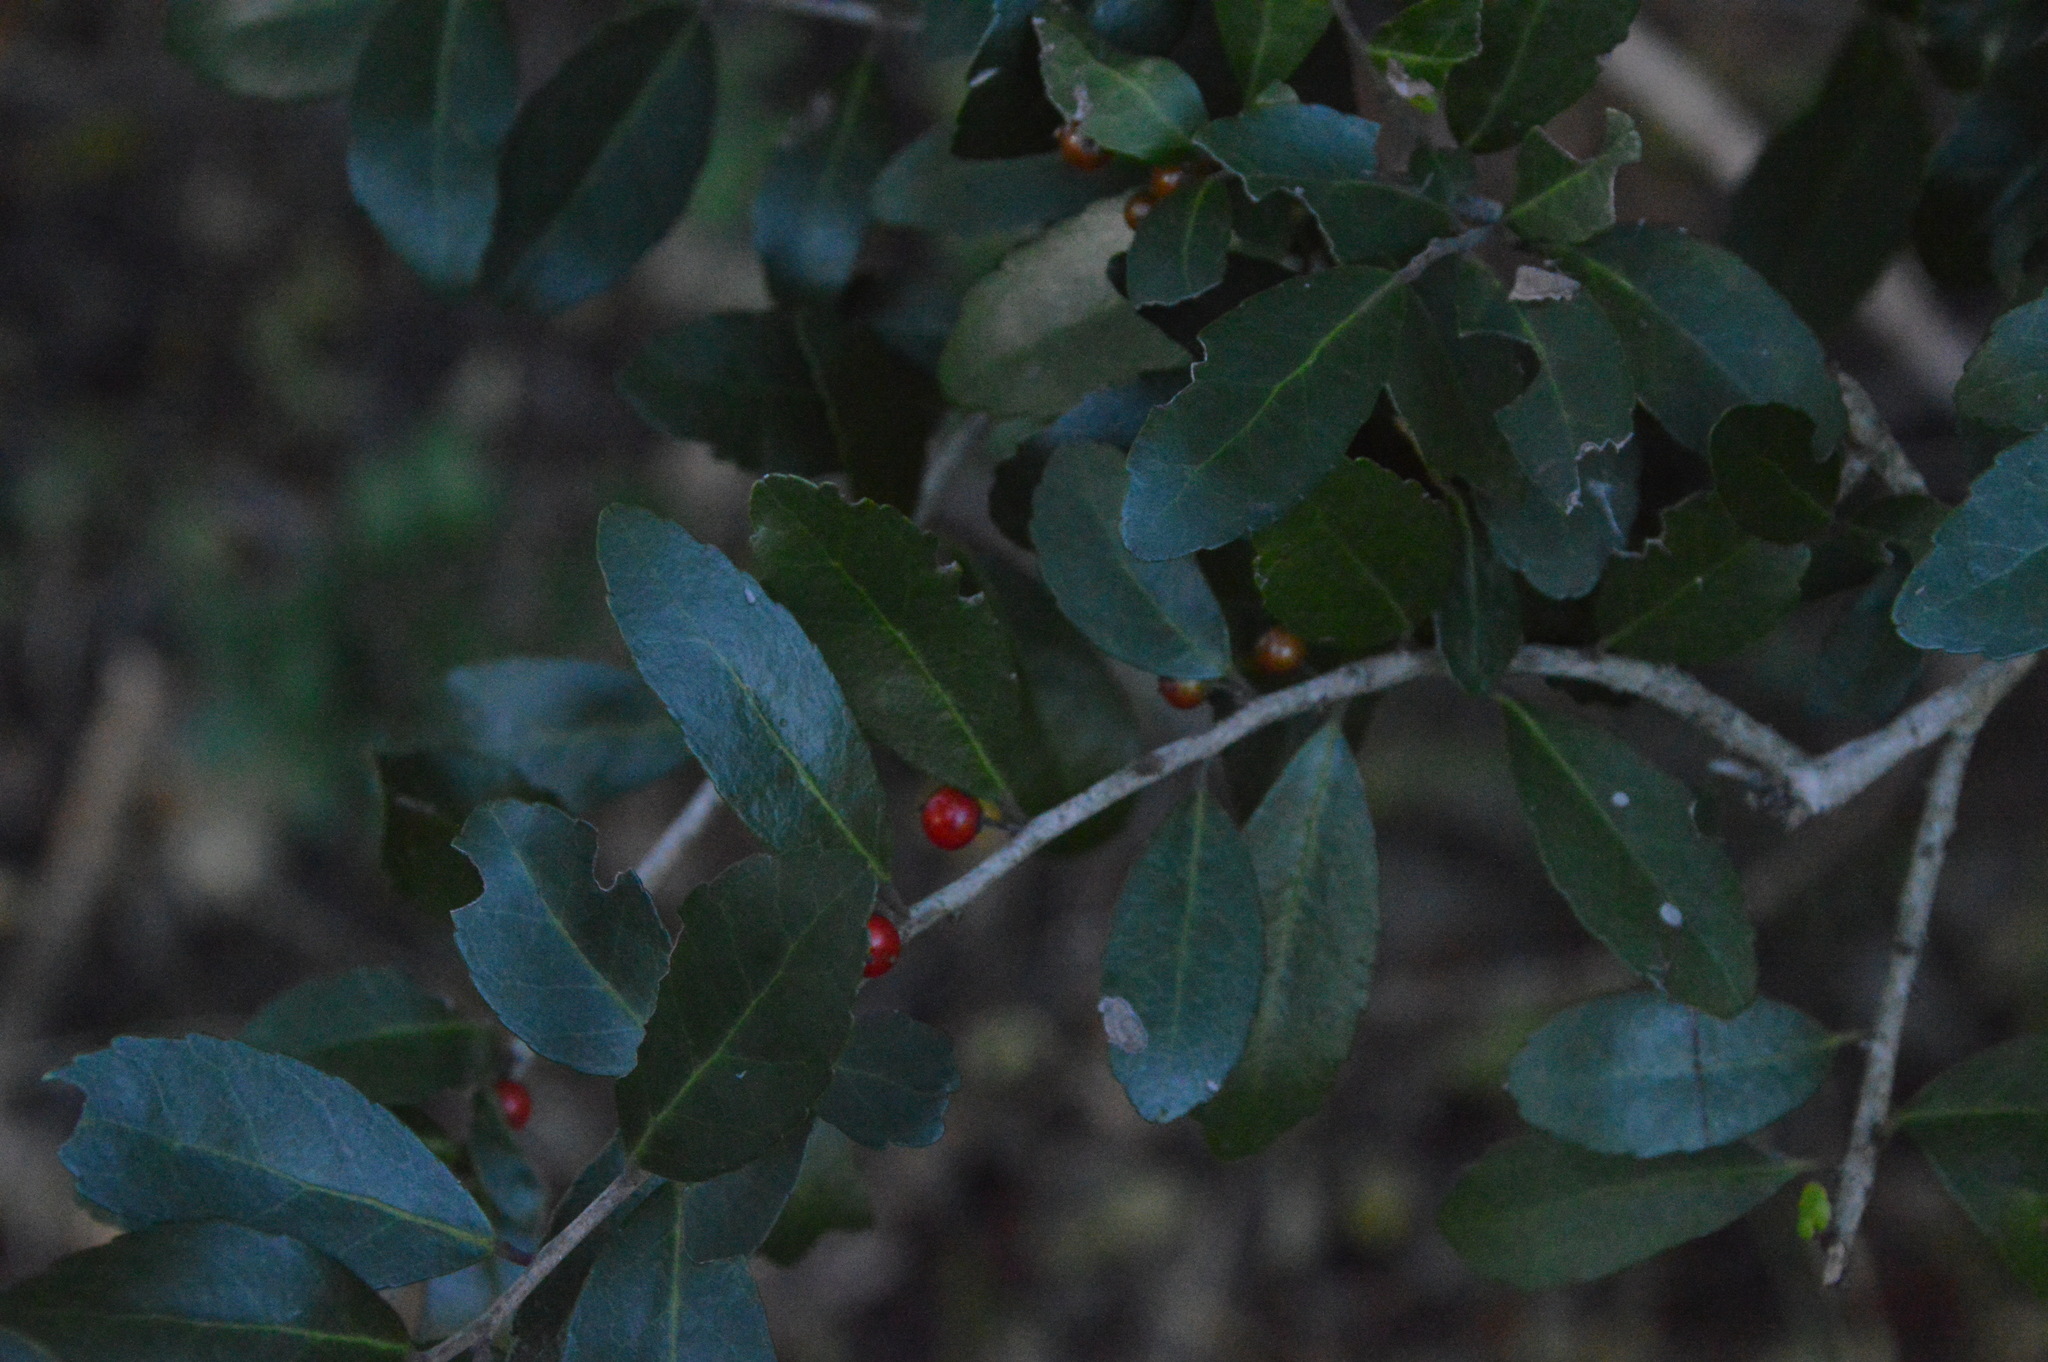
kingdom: Plantae
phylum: Tracheophyta
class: Magnoliopsida
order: Aquifoliales
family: Aquifoliaceae
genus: Ilex
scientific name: Ilex vomitoria
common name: Yaupon holly
